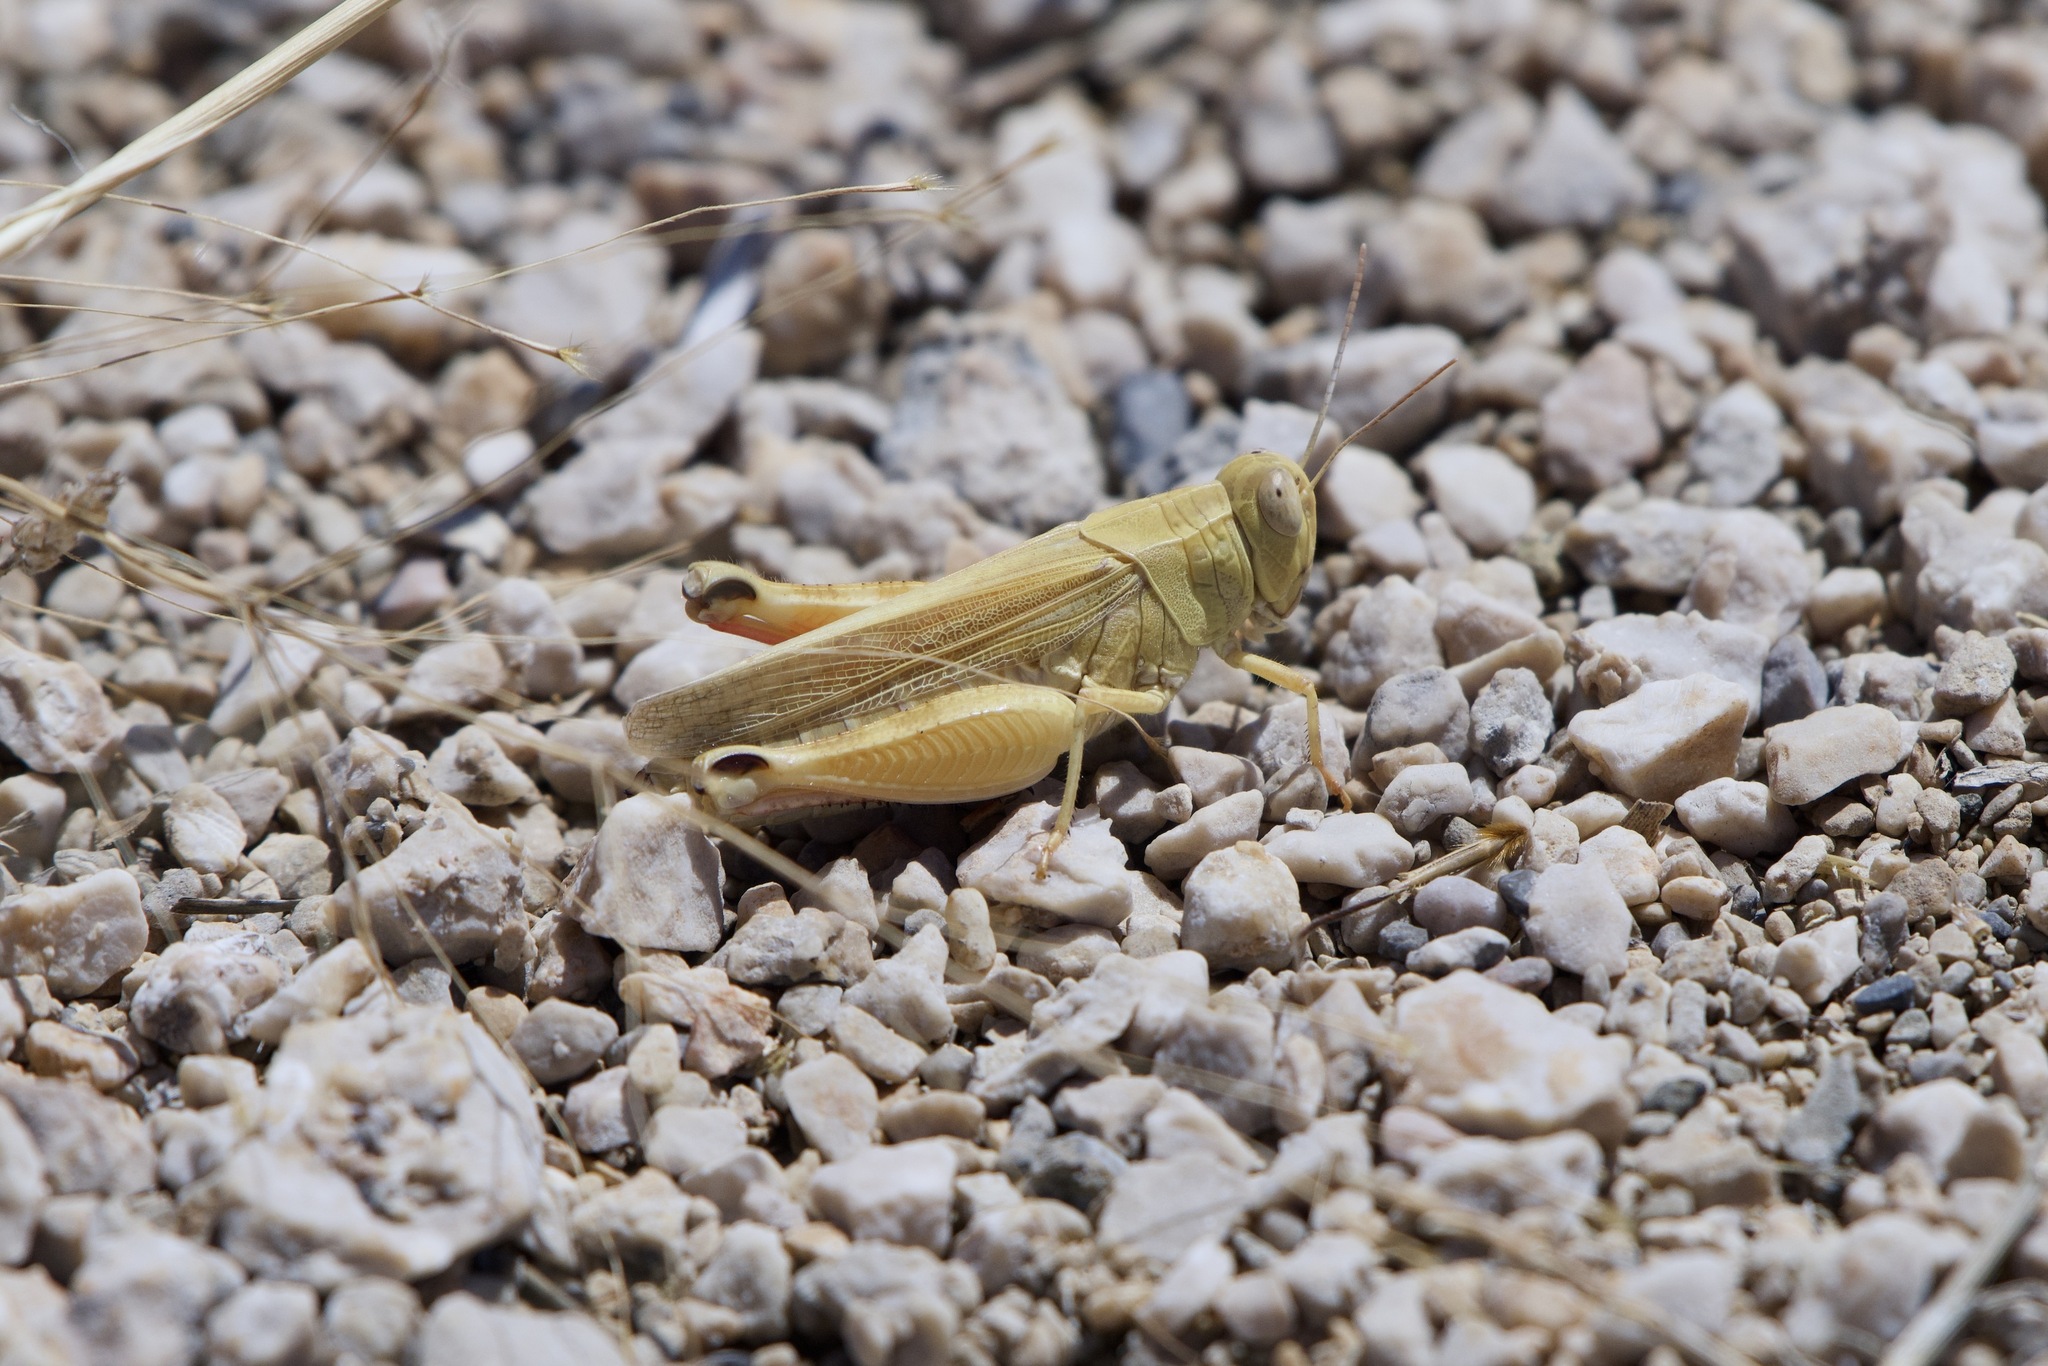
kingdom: Animalia
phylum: Arthropoda
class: Insecta
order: Orthoptera
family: Acrididae
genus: Calliptamus
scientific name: Calliptamus italicus
